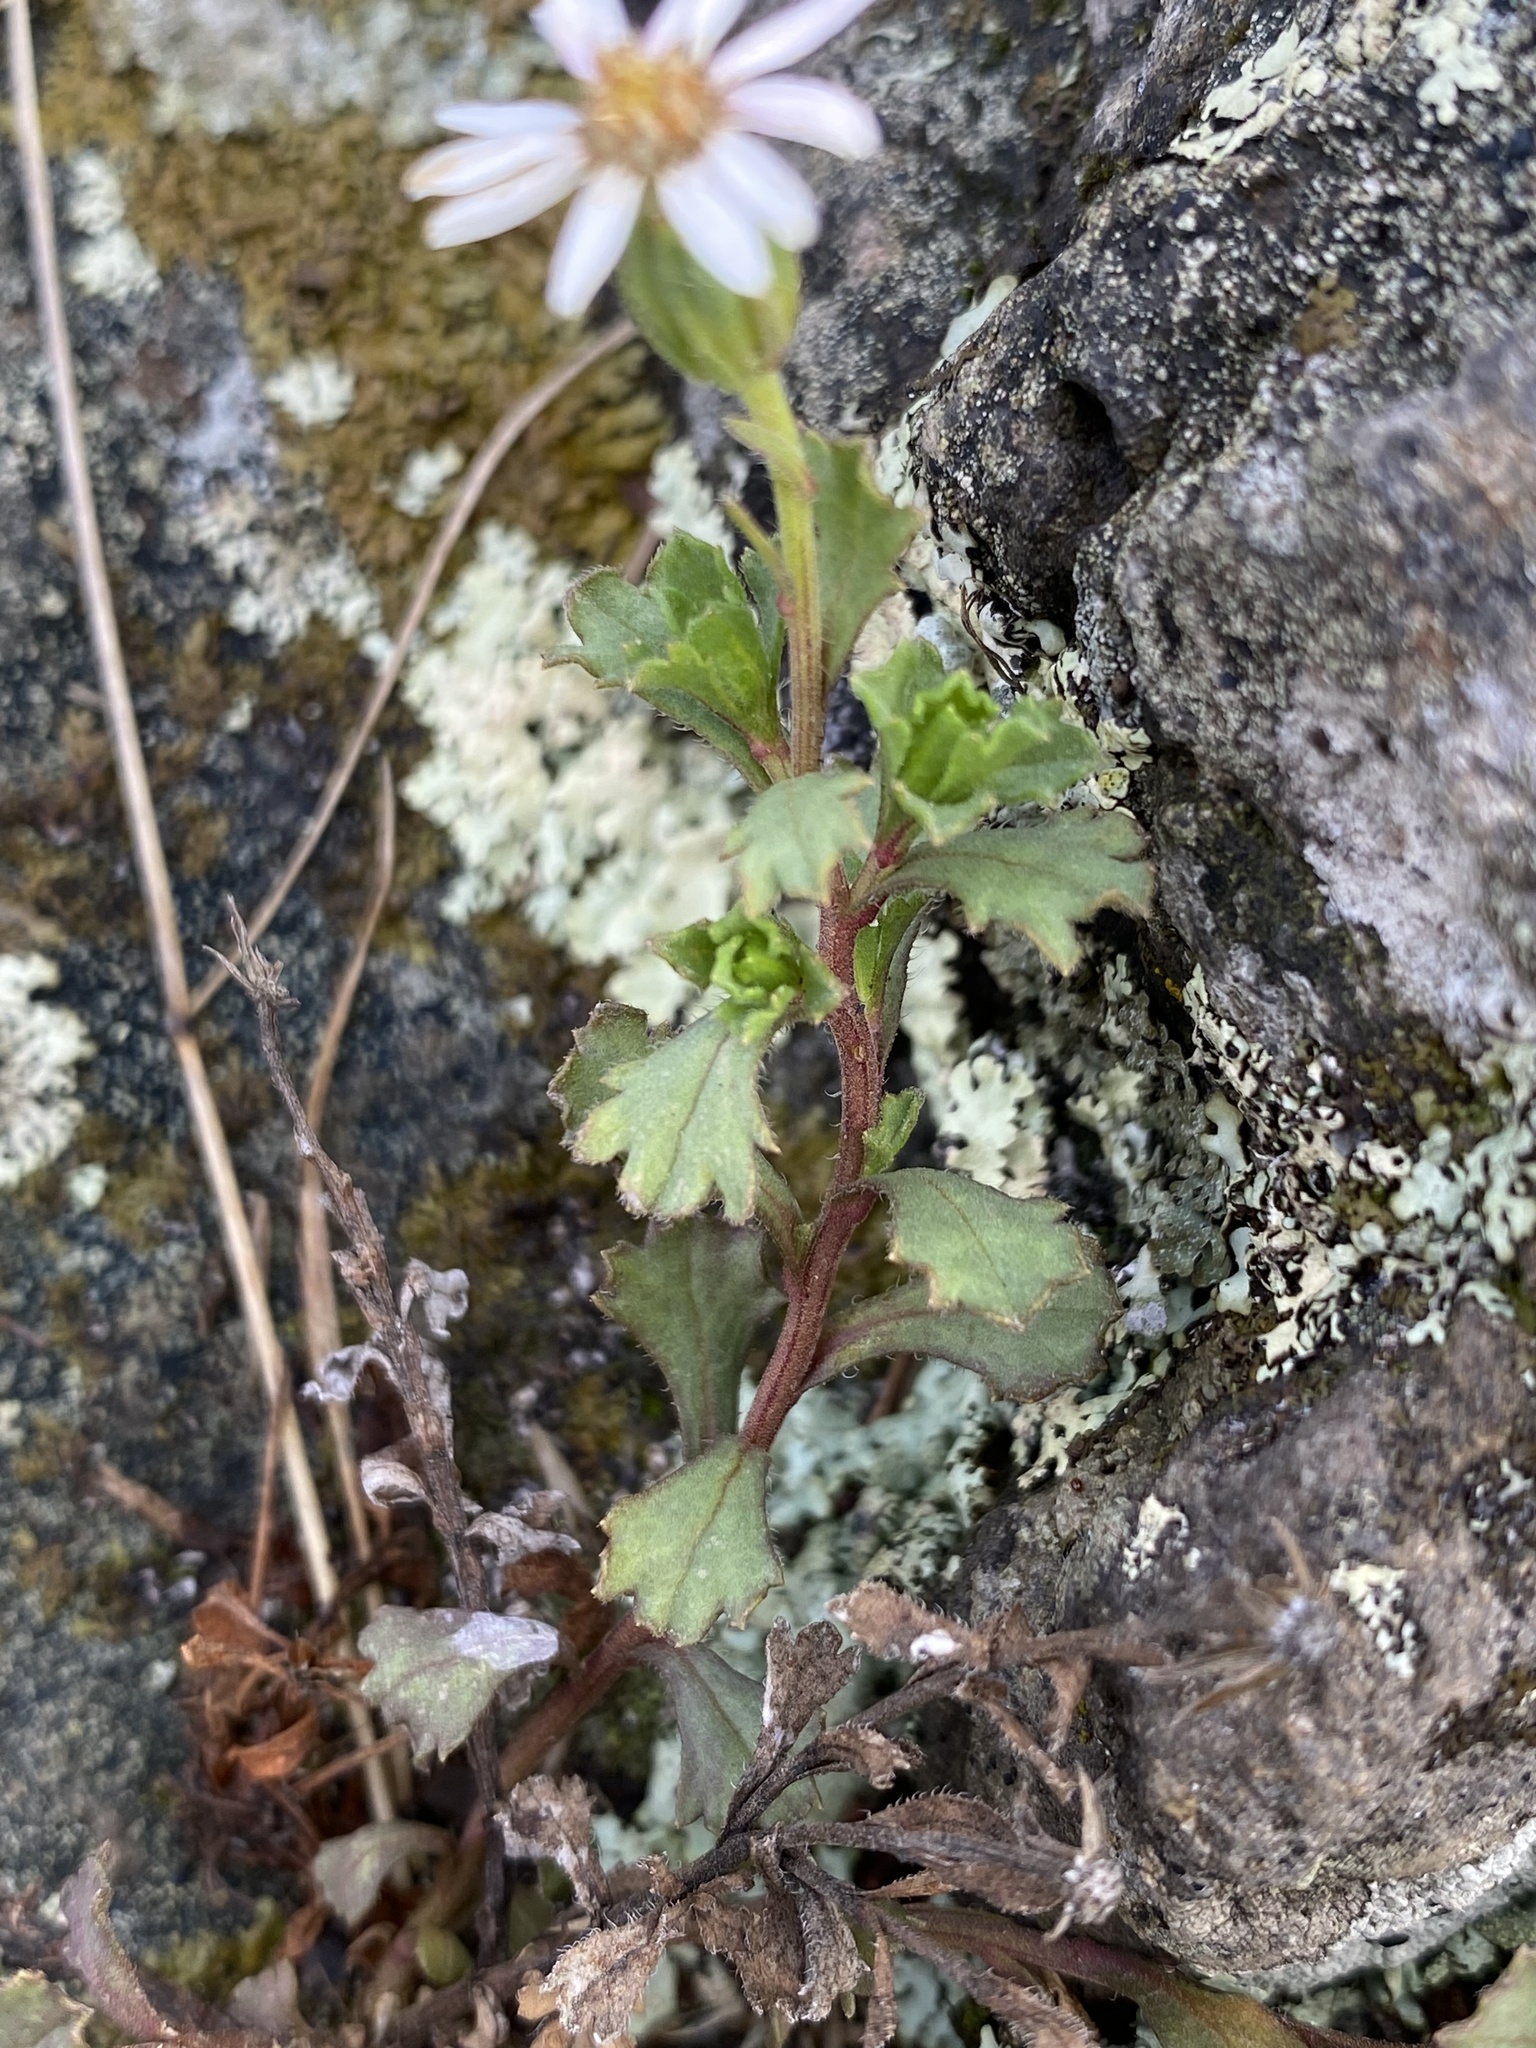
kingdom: Plantae
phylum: Tracheophyta
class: Magnoliopsida
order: Asterales
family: Asteraceae
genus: Vittadinia
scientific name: Vittadinia australis
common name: White fuzzweed
